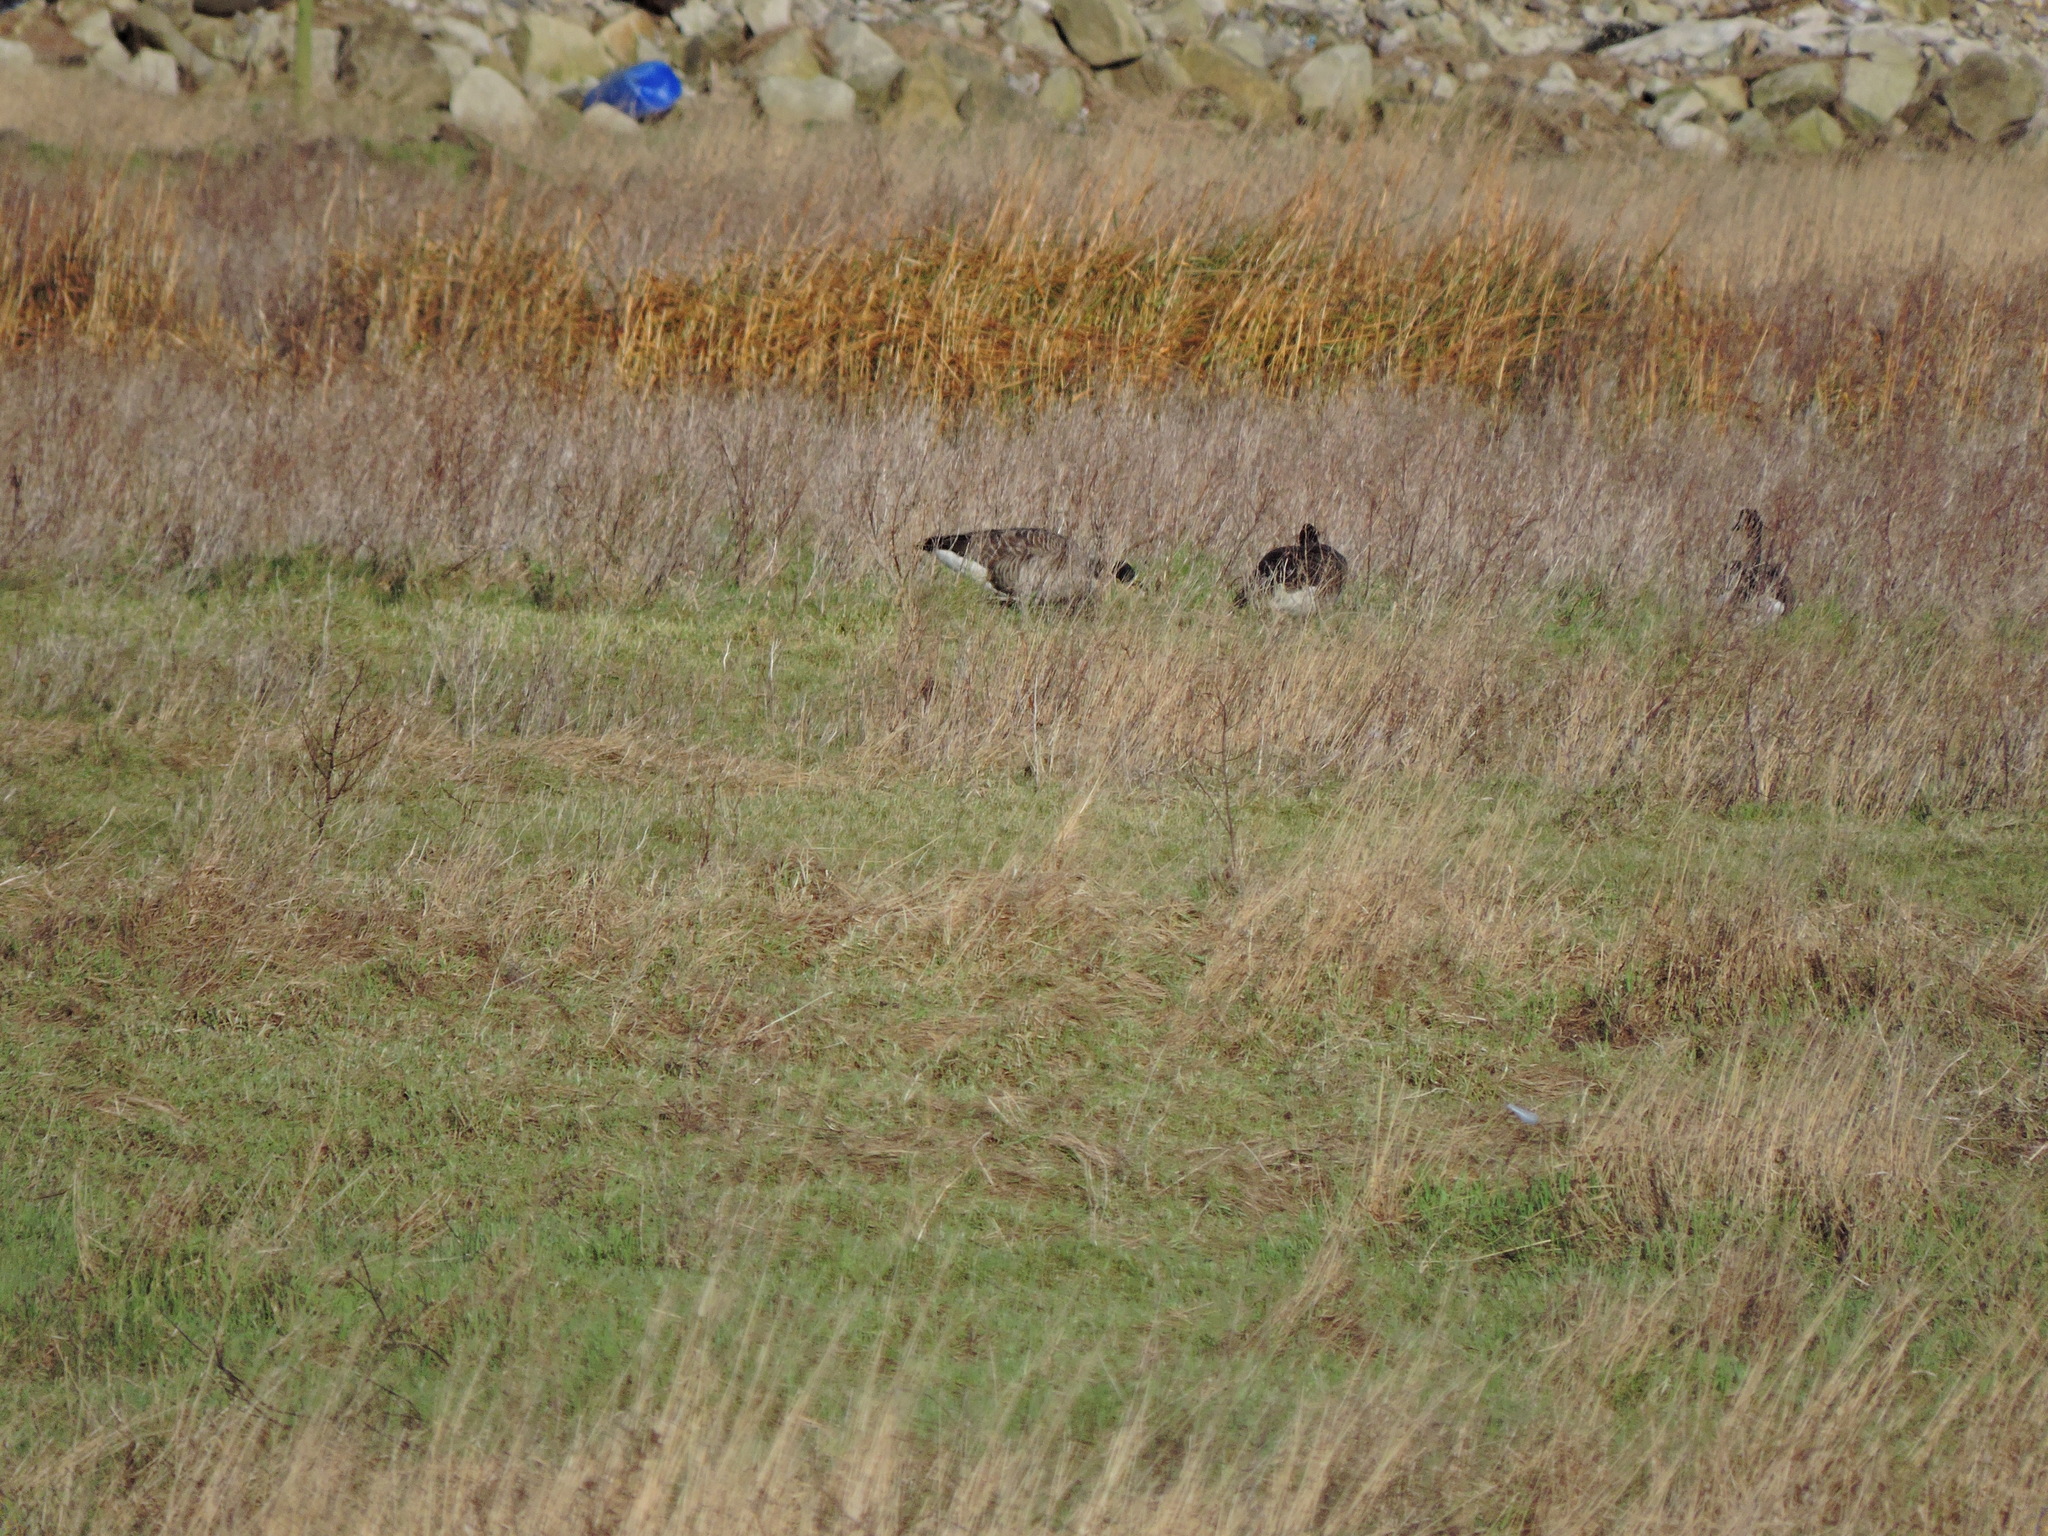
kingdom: Animalia
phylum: Chordata
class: Aves
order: Anseriformes
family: Anatidae
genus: Branta
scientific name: Branta canadensis
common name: Canada goose
